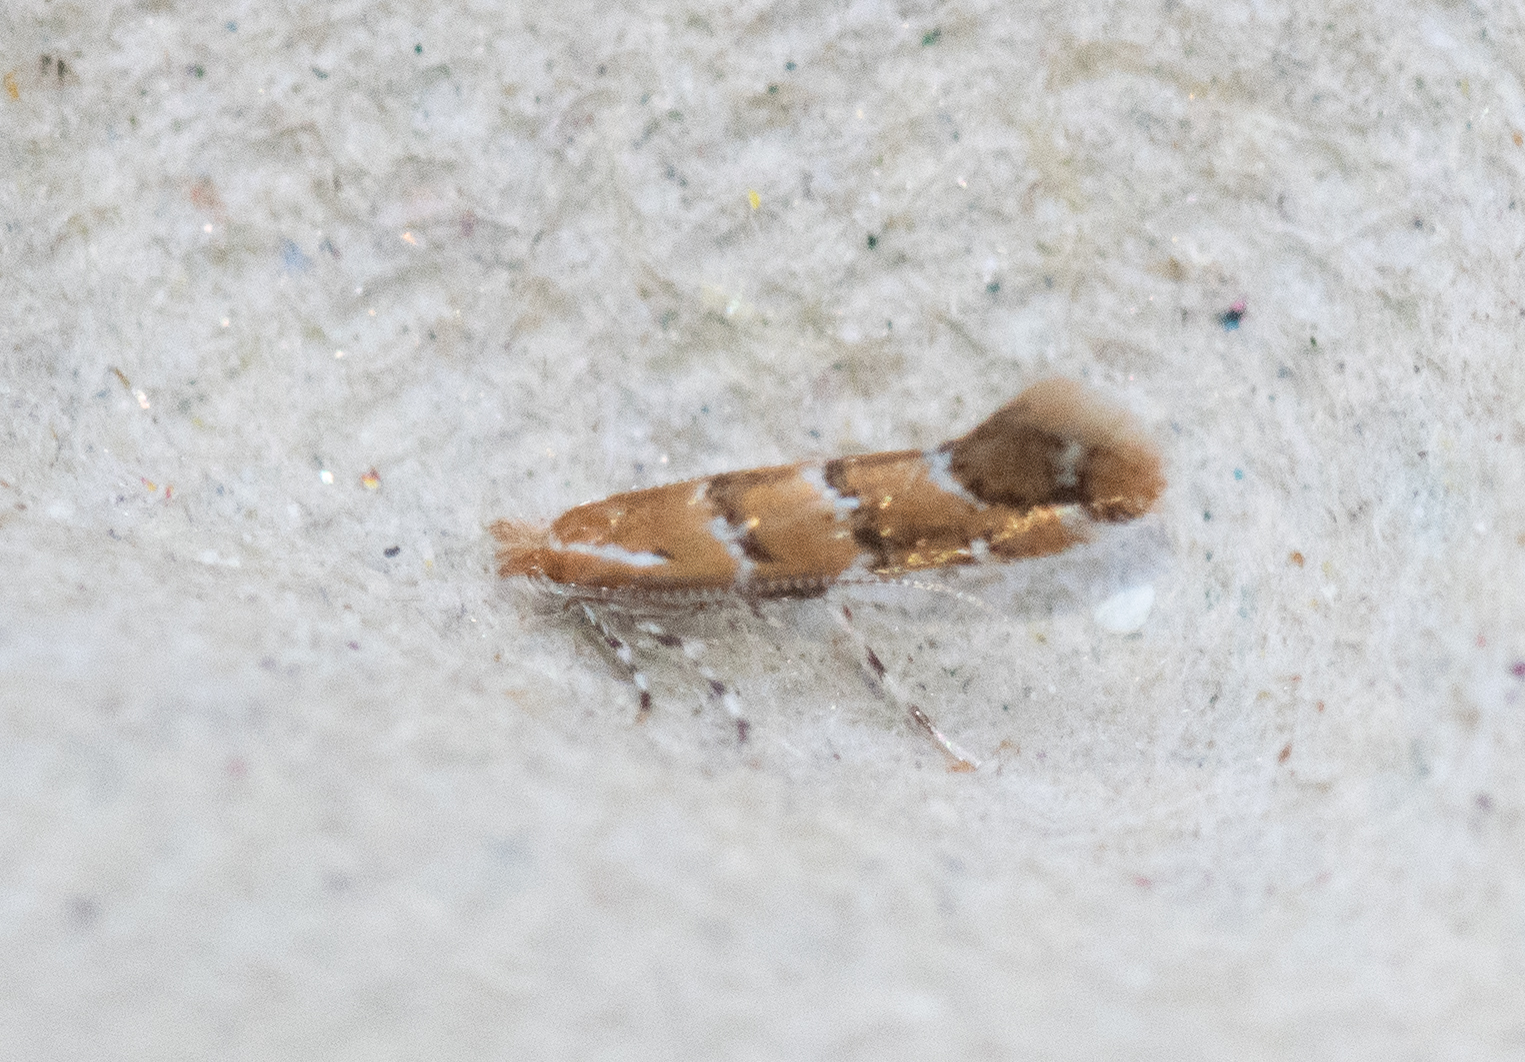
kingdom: Animalia
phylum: Arthropoda
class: Insecta
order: Lepidoptera
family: Gracillariidae
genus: Cameraria
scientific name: Cameraria ohridella
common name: Horse-chestnut leaf-miner
